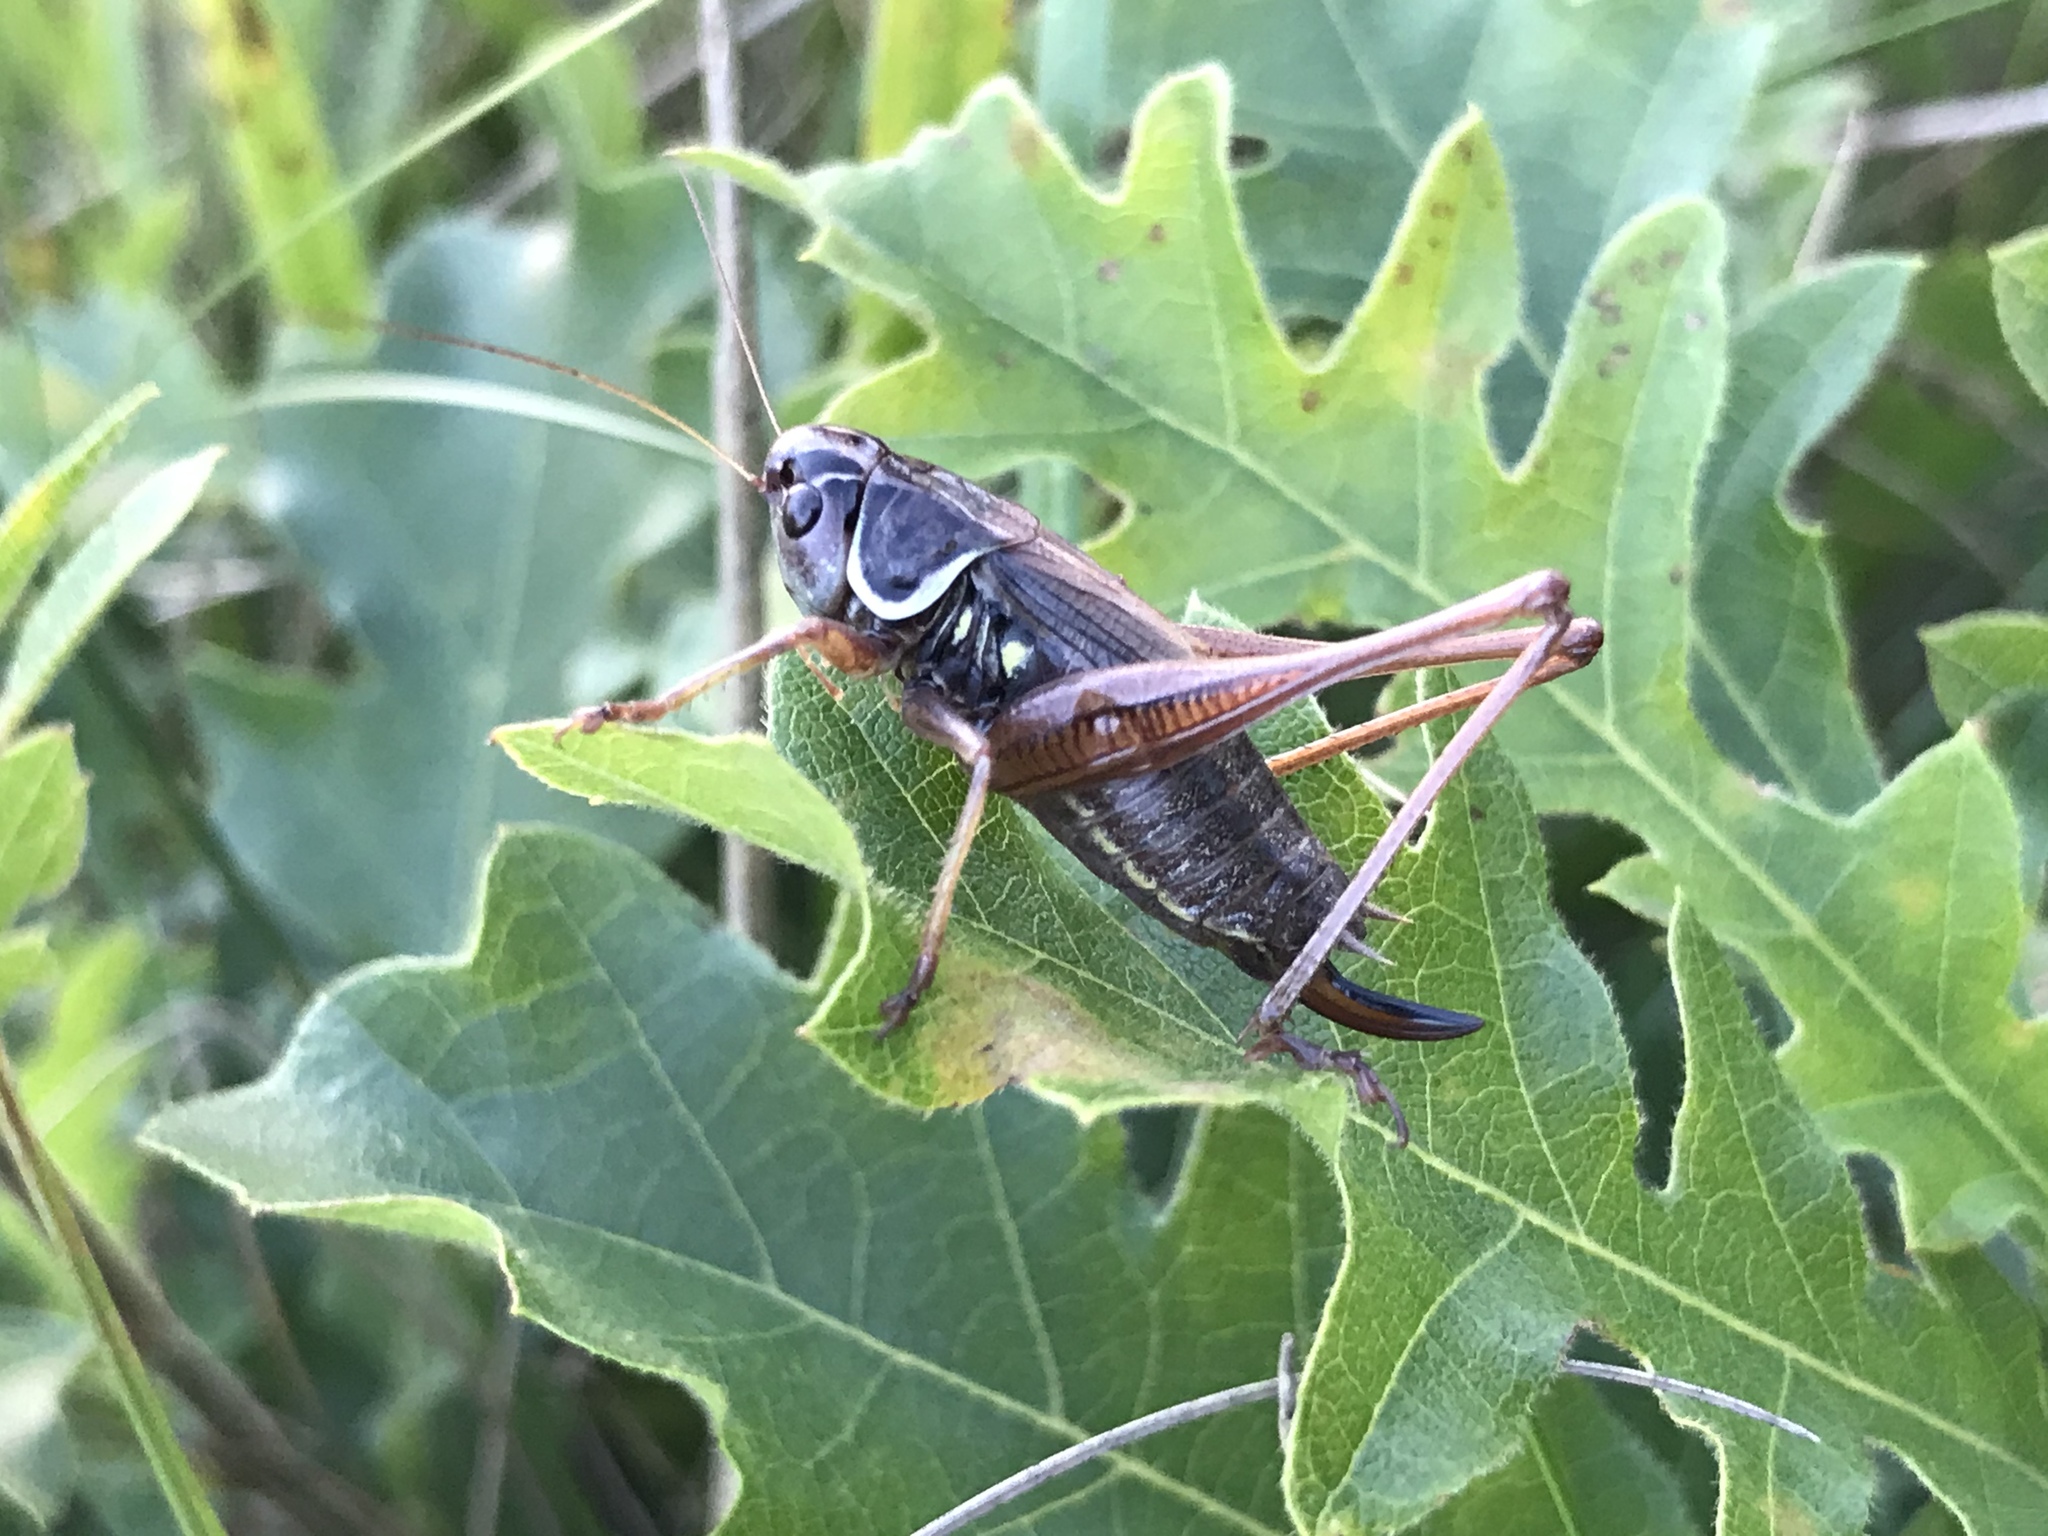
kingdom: Animalia
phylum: Arthropoda
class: Insecta
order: Orthoptera
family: Tettigoniidae
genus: Roeseliana
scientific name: Roeseliana roeselii
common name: Roesel's bush cricket
